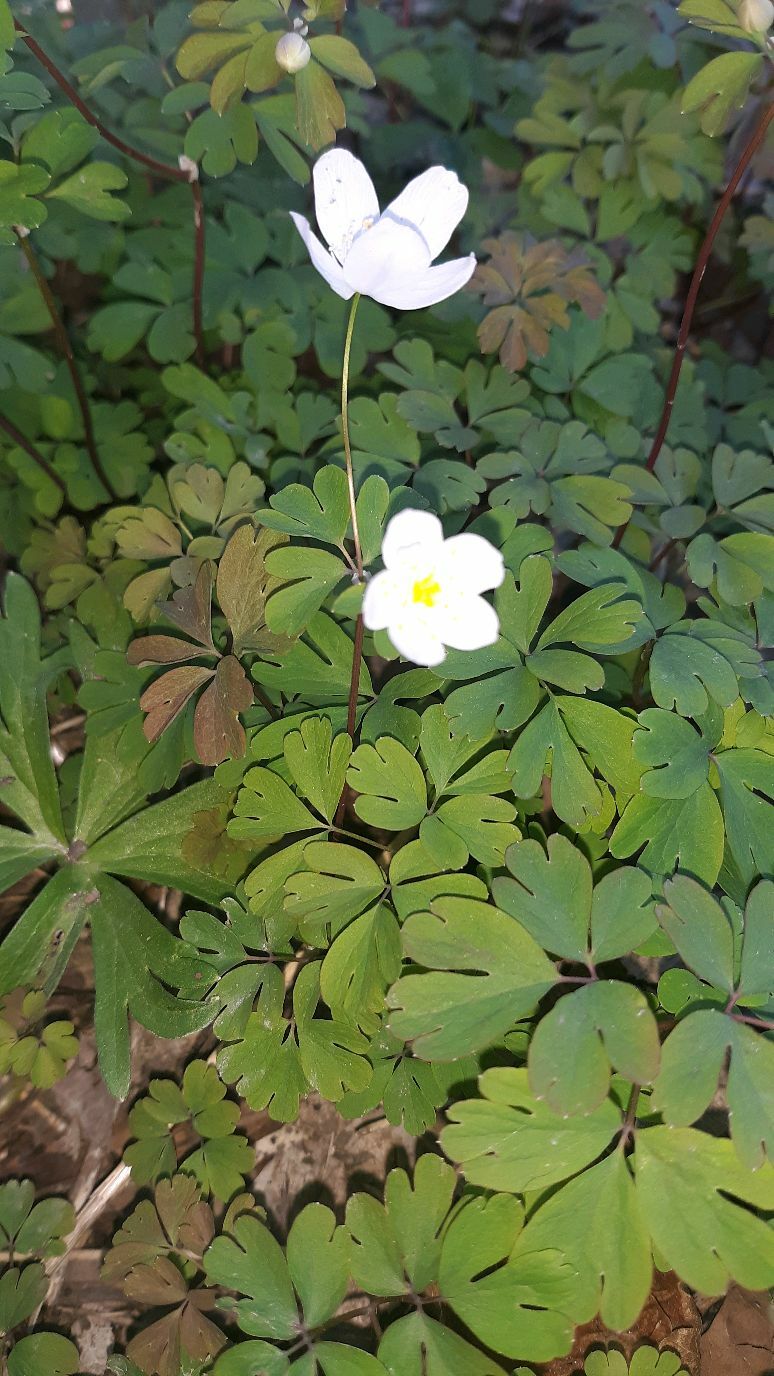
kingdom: Plantae
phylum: Tracheophyta
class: Magnoliopsida
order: Ranunculales
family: Ranunculaceae
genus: Enemion
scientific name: Enemion biternatum
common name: Eastern false rue-anemone
